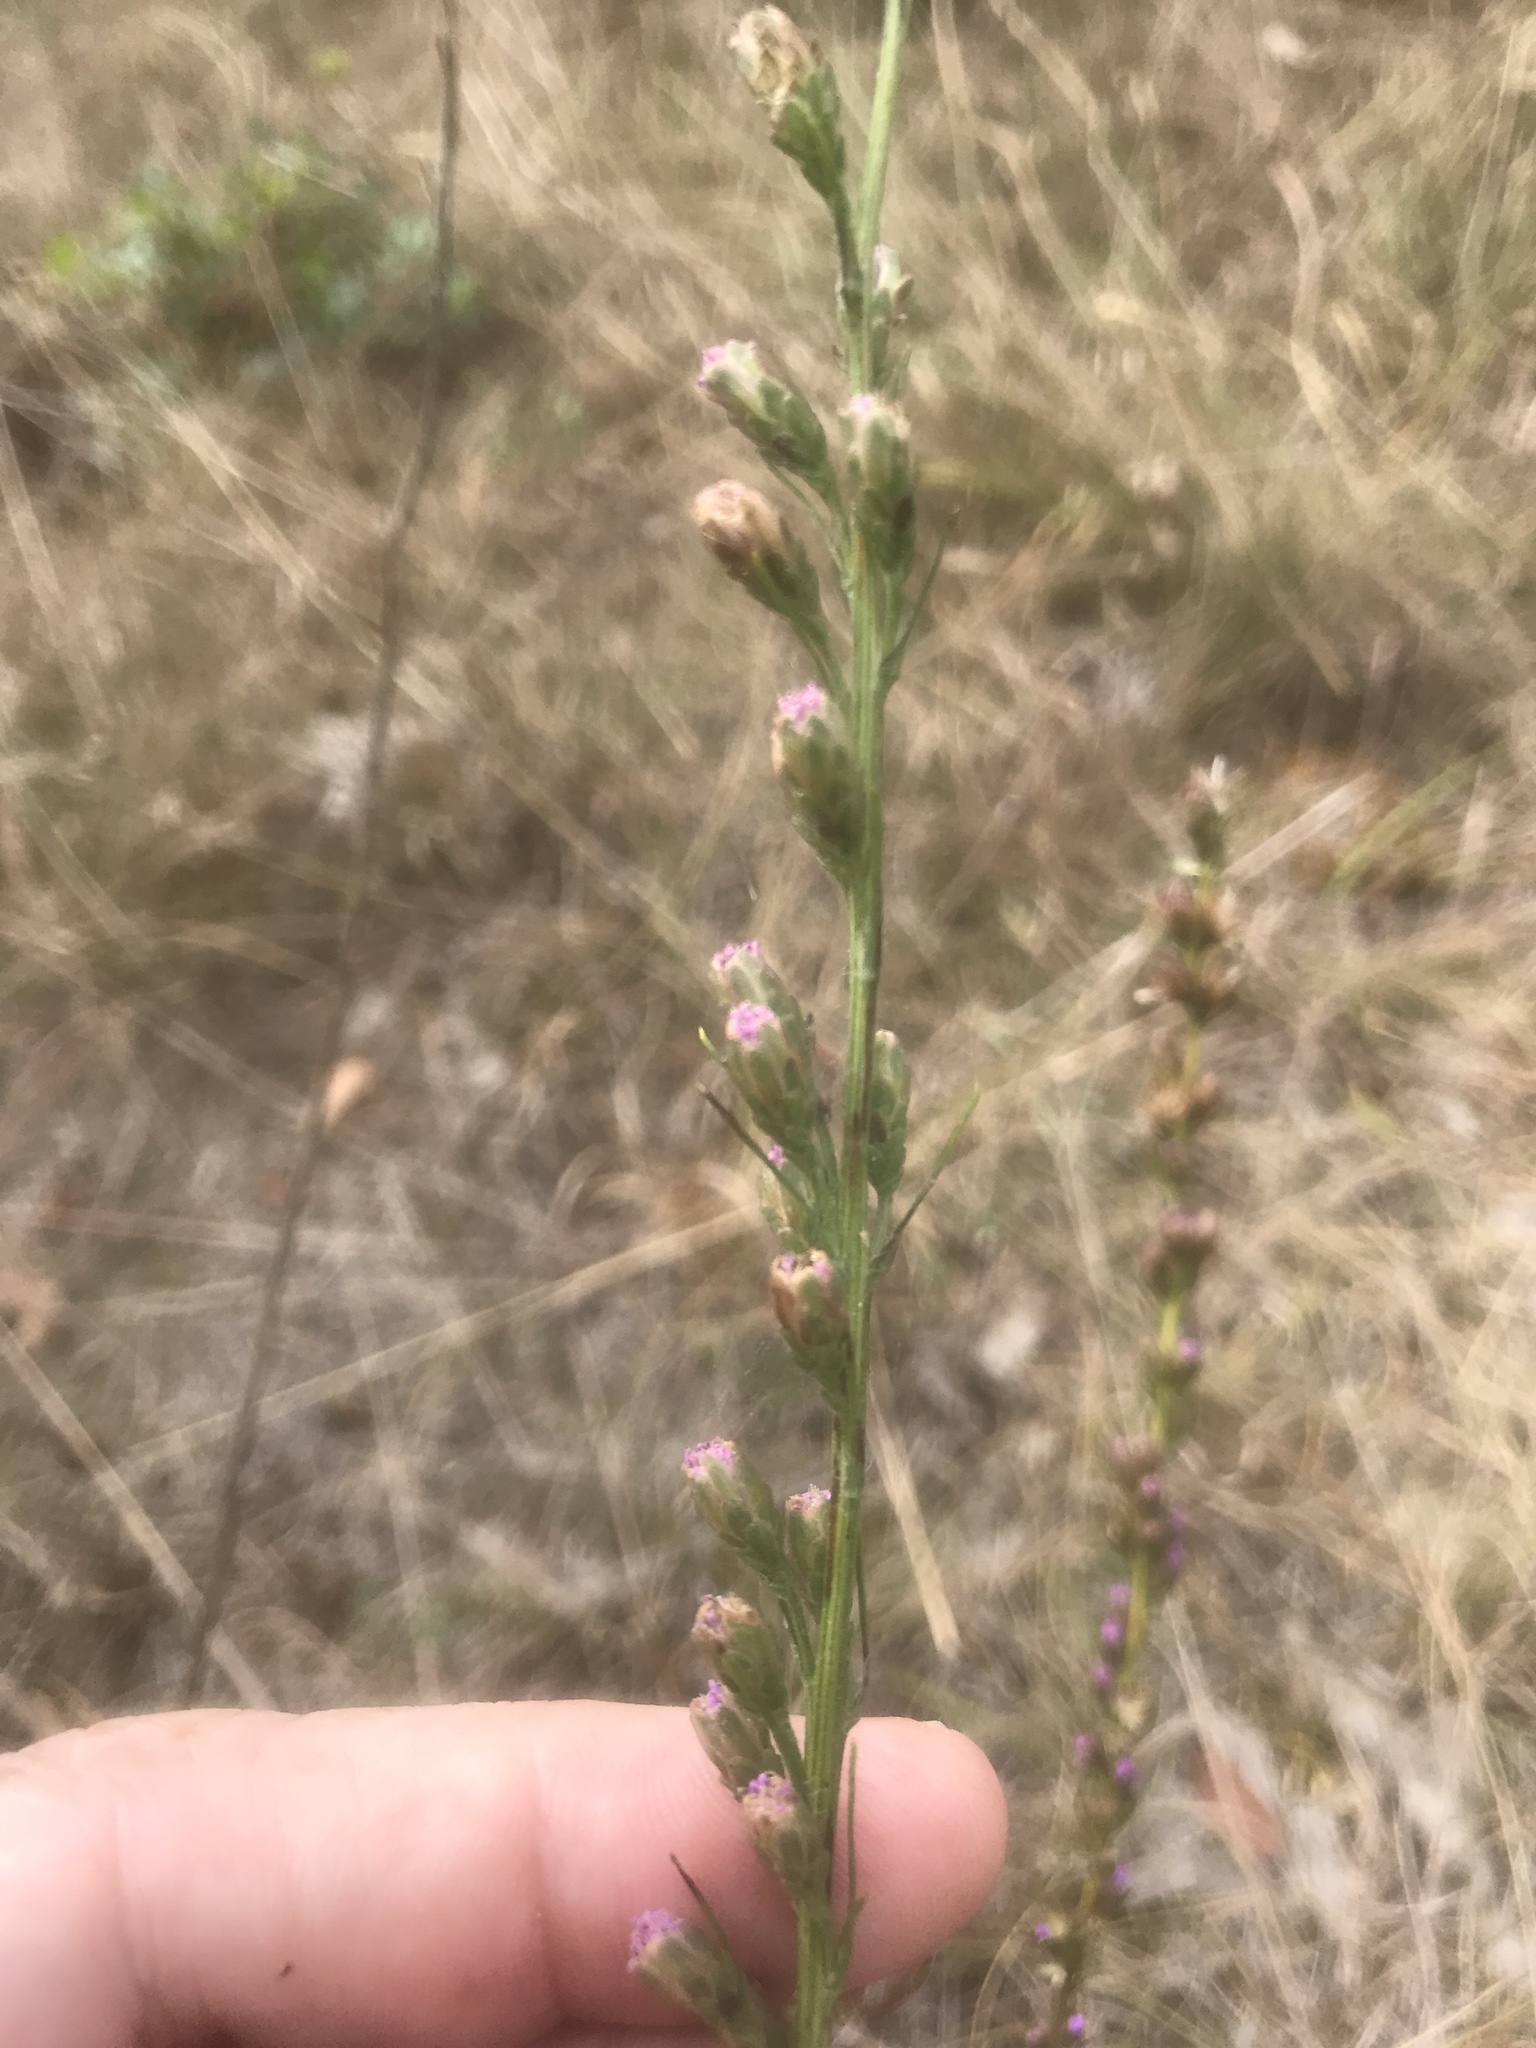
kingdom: Plantae
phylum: Tracheophyta
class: Magnoliopsida
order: Asterales
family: Asteraceae
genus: Liatris
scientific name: Liatris pilosa
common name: Grass-leaf gayfeather
